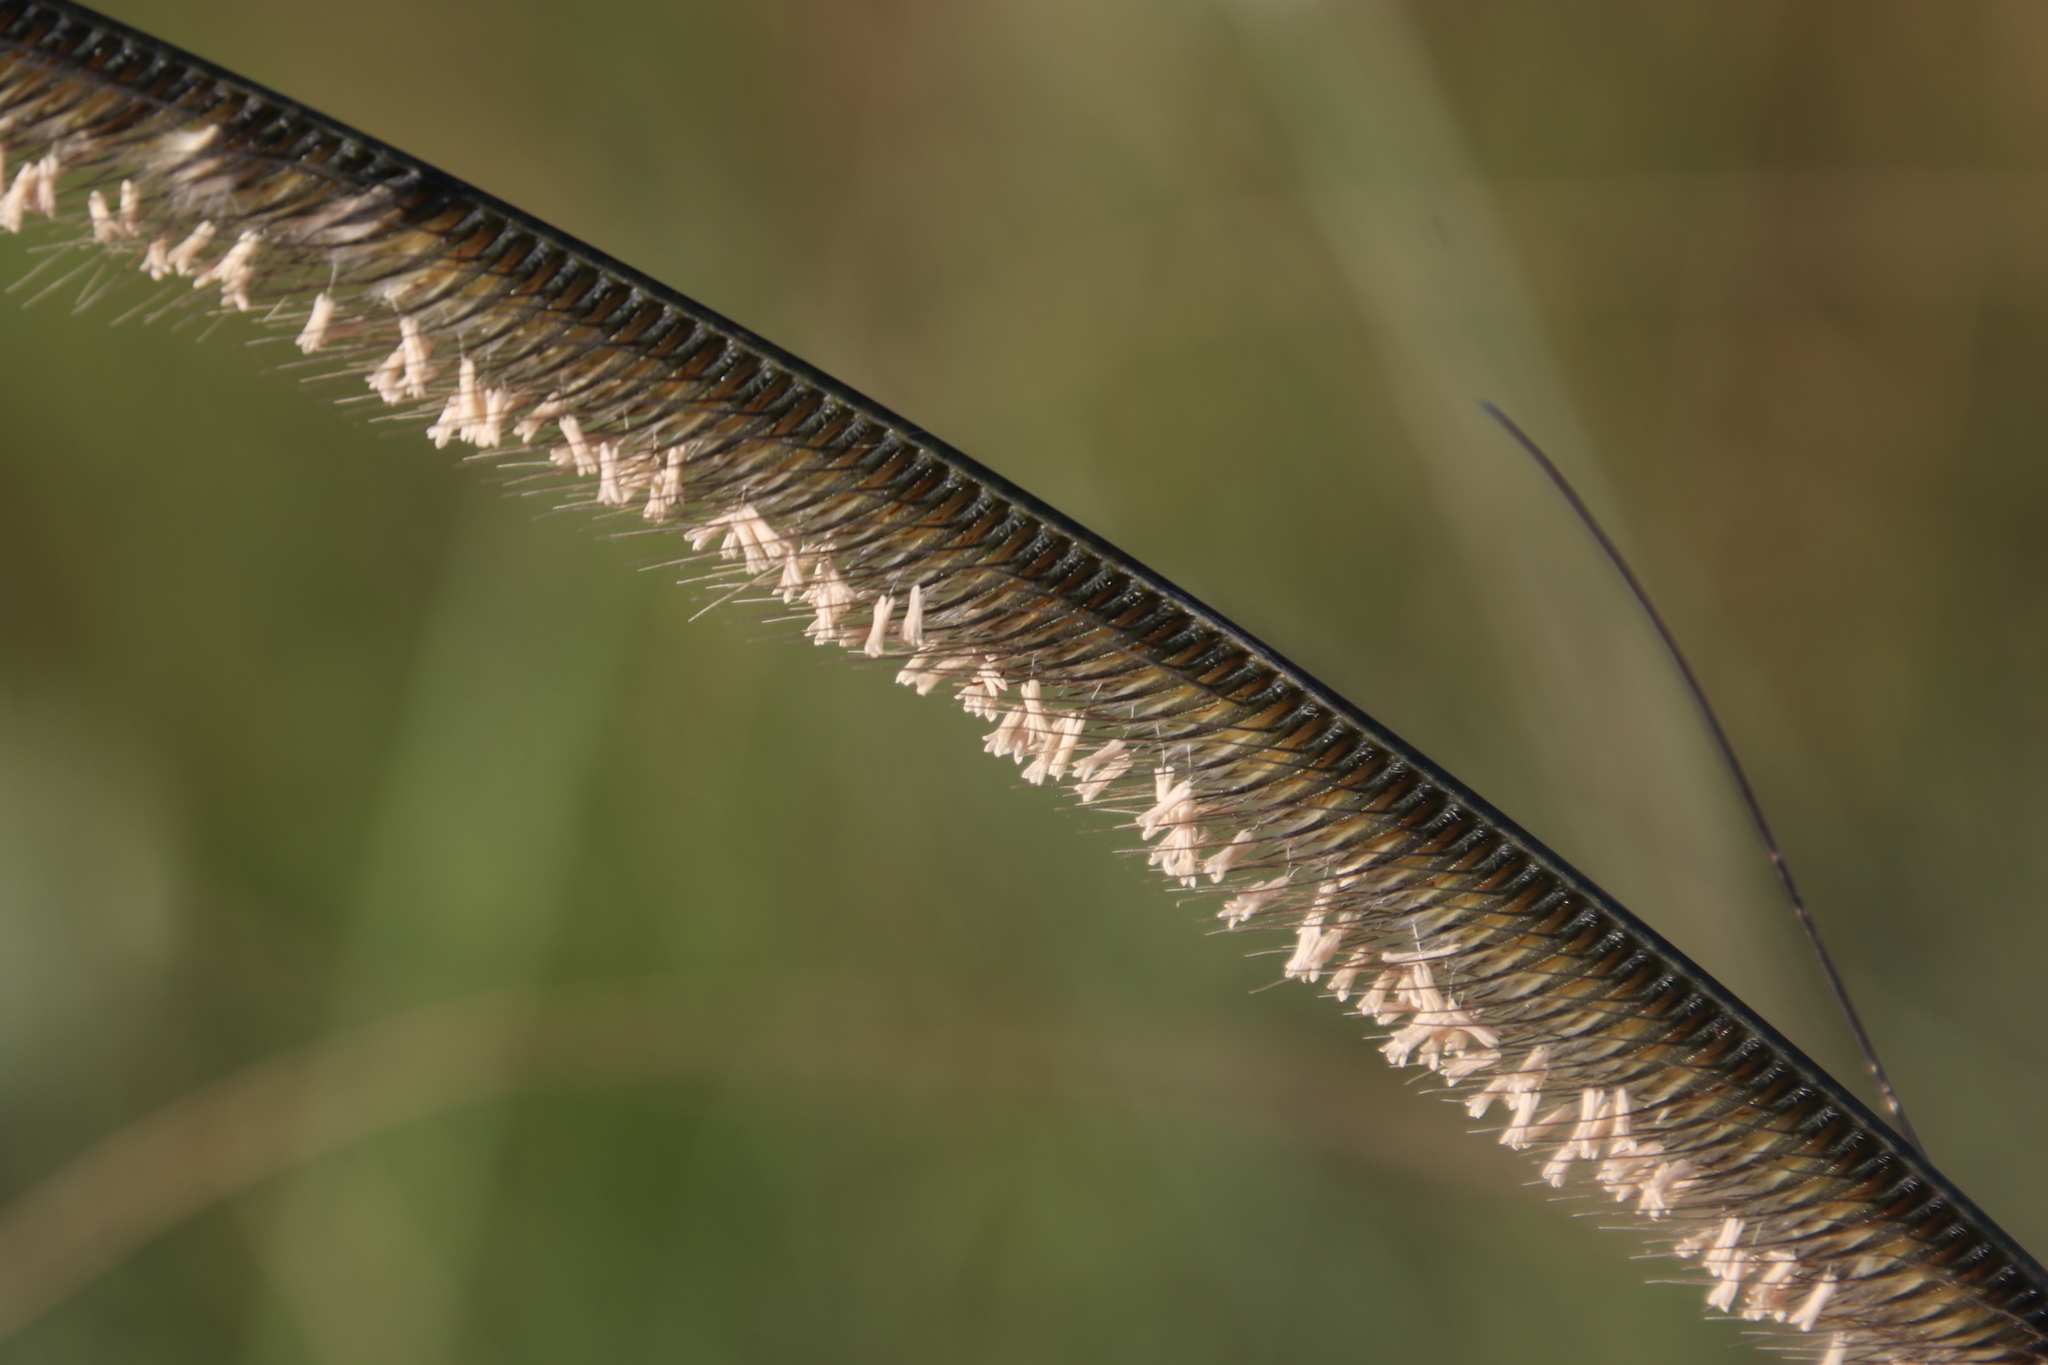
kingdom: Plantae
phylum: Tracheophyta
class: Liliopsida
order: Poales
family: Poaceae
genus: Ctenium
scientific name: Ctenium concinnum
